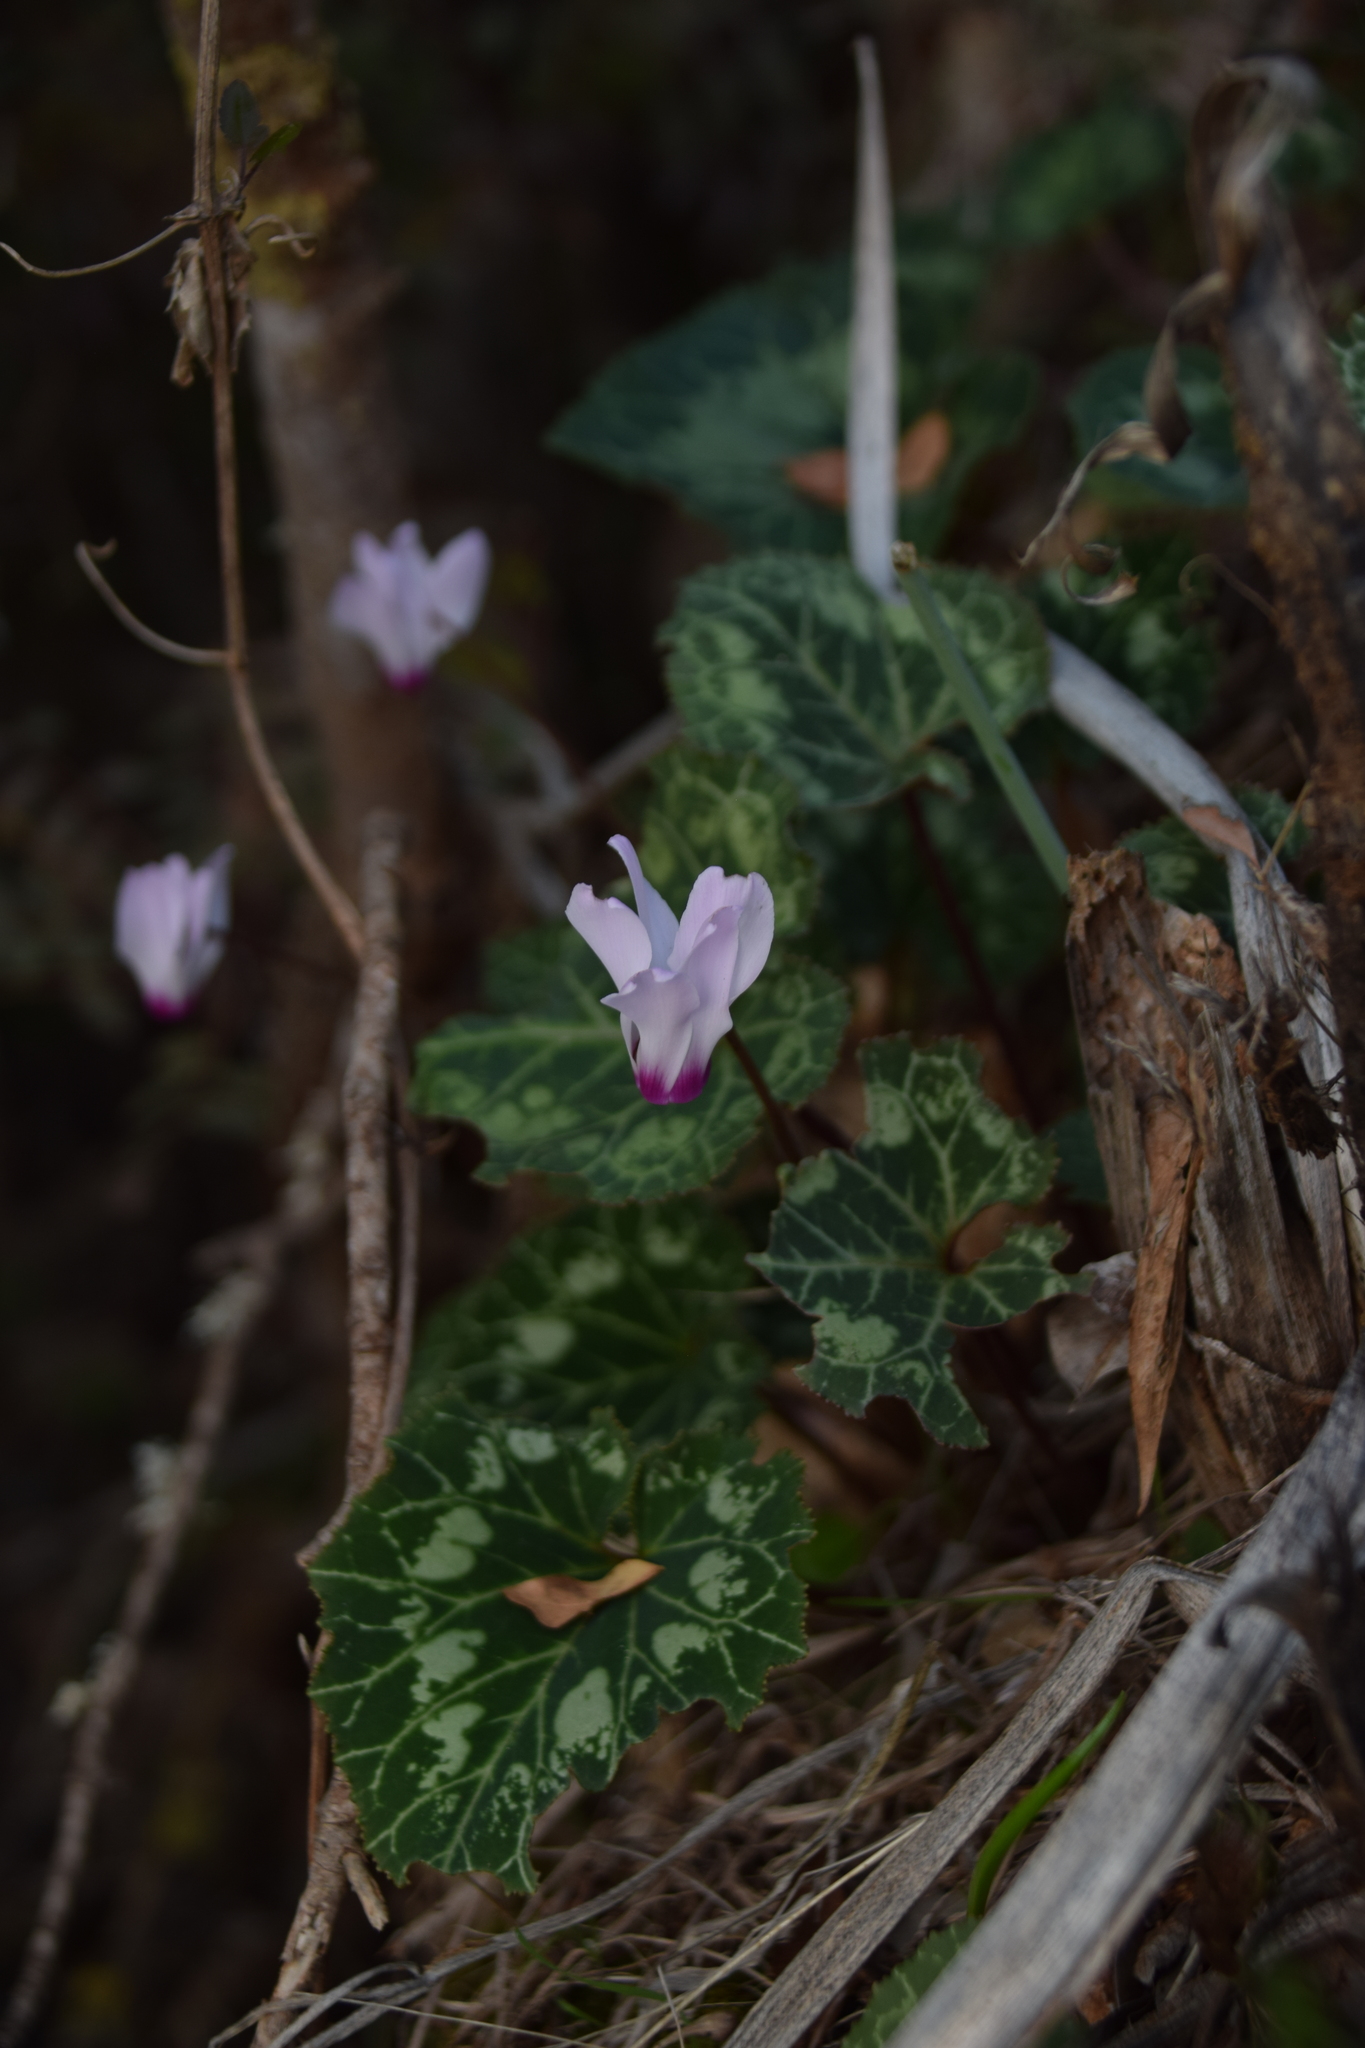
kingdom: Plantae
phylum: Tracheophyta
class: Magnoliopsida
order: Ericales
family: Primulaceae
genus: Cyclamen
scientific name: Cyclamen persicum
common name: Florist's cyclamen
